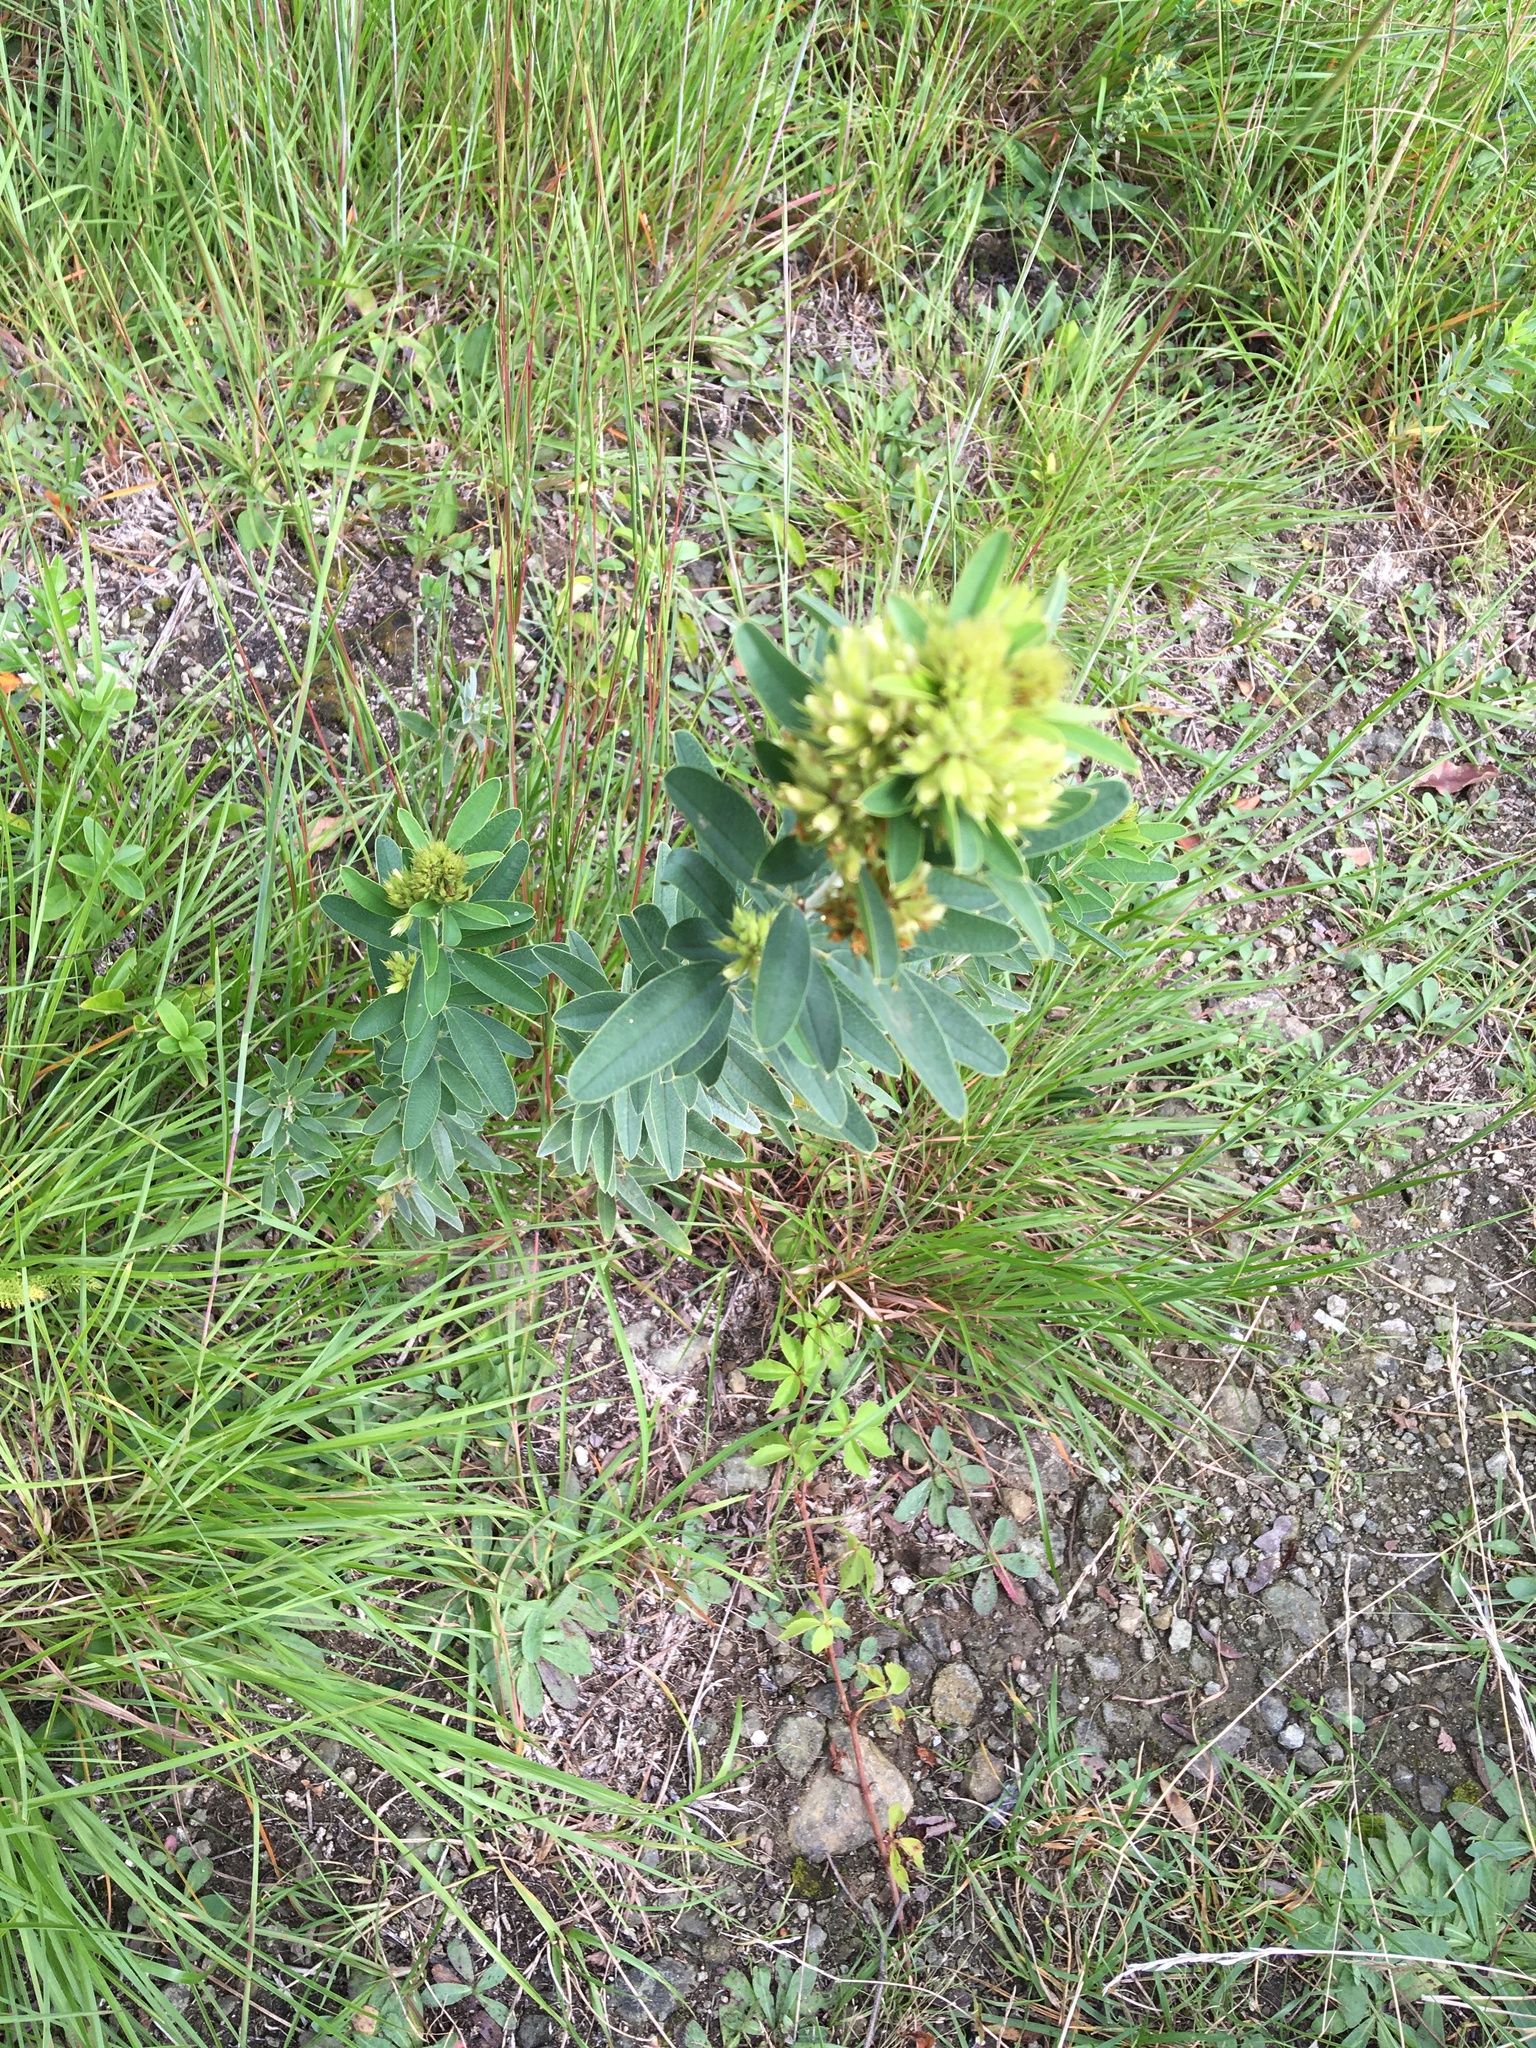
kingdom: Plantae
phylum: Tracheophyta
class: Magnoliopsida
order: Fabales
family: Fabaceae
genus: Lespedeza
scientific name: Lespedeza capitata
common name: Dusty clover
